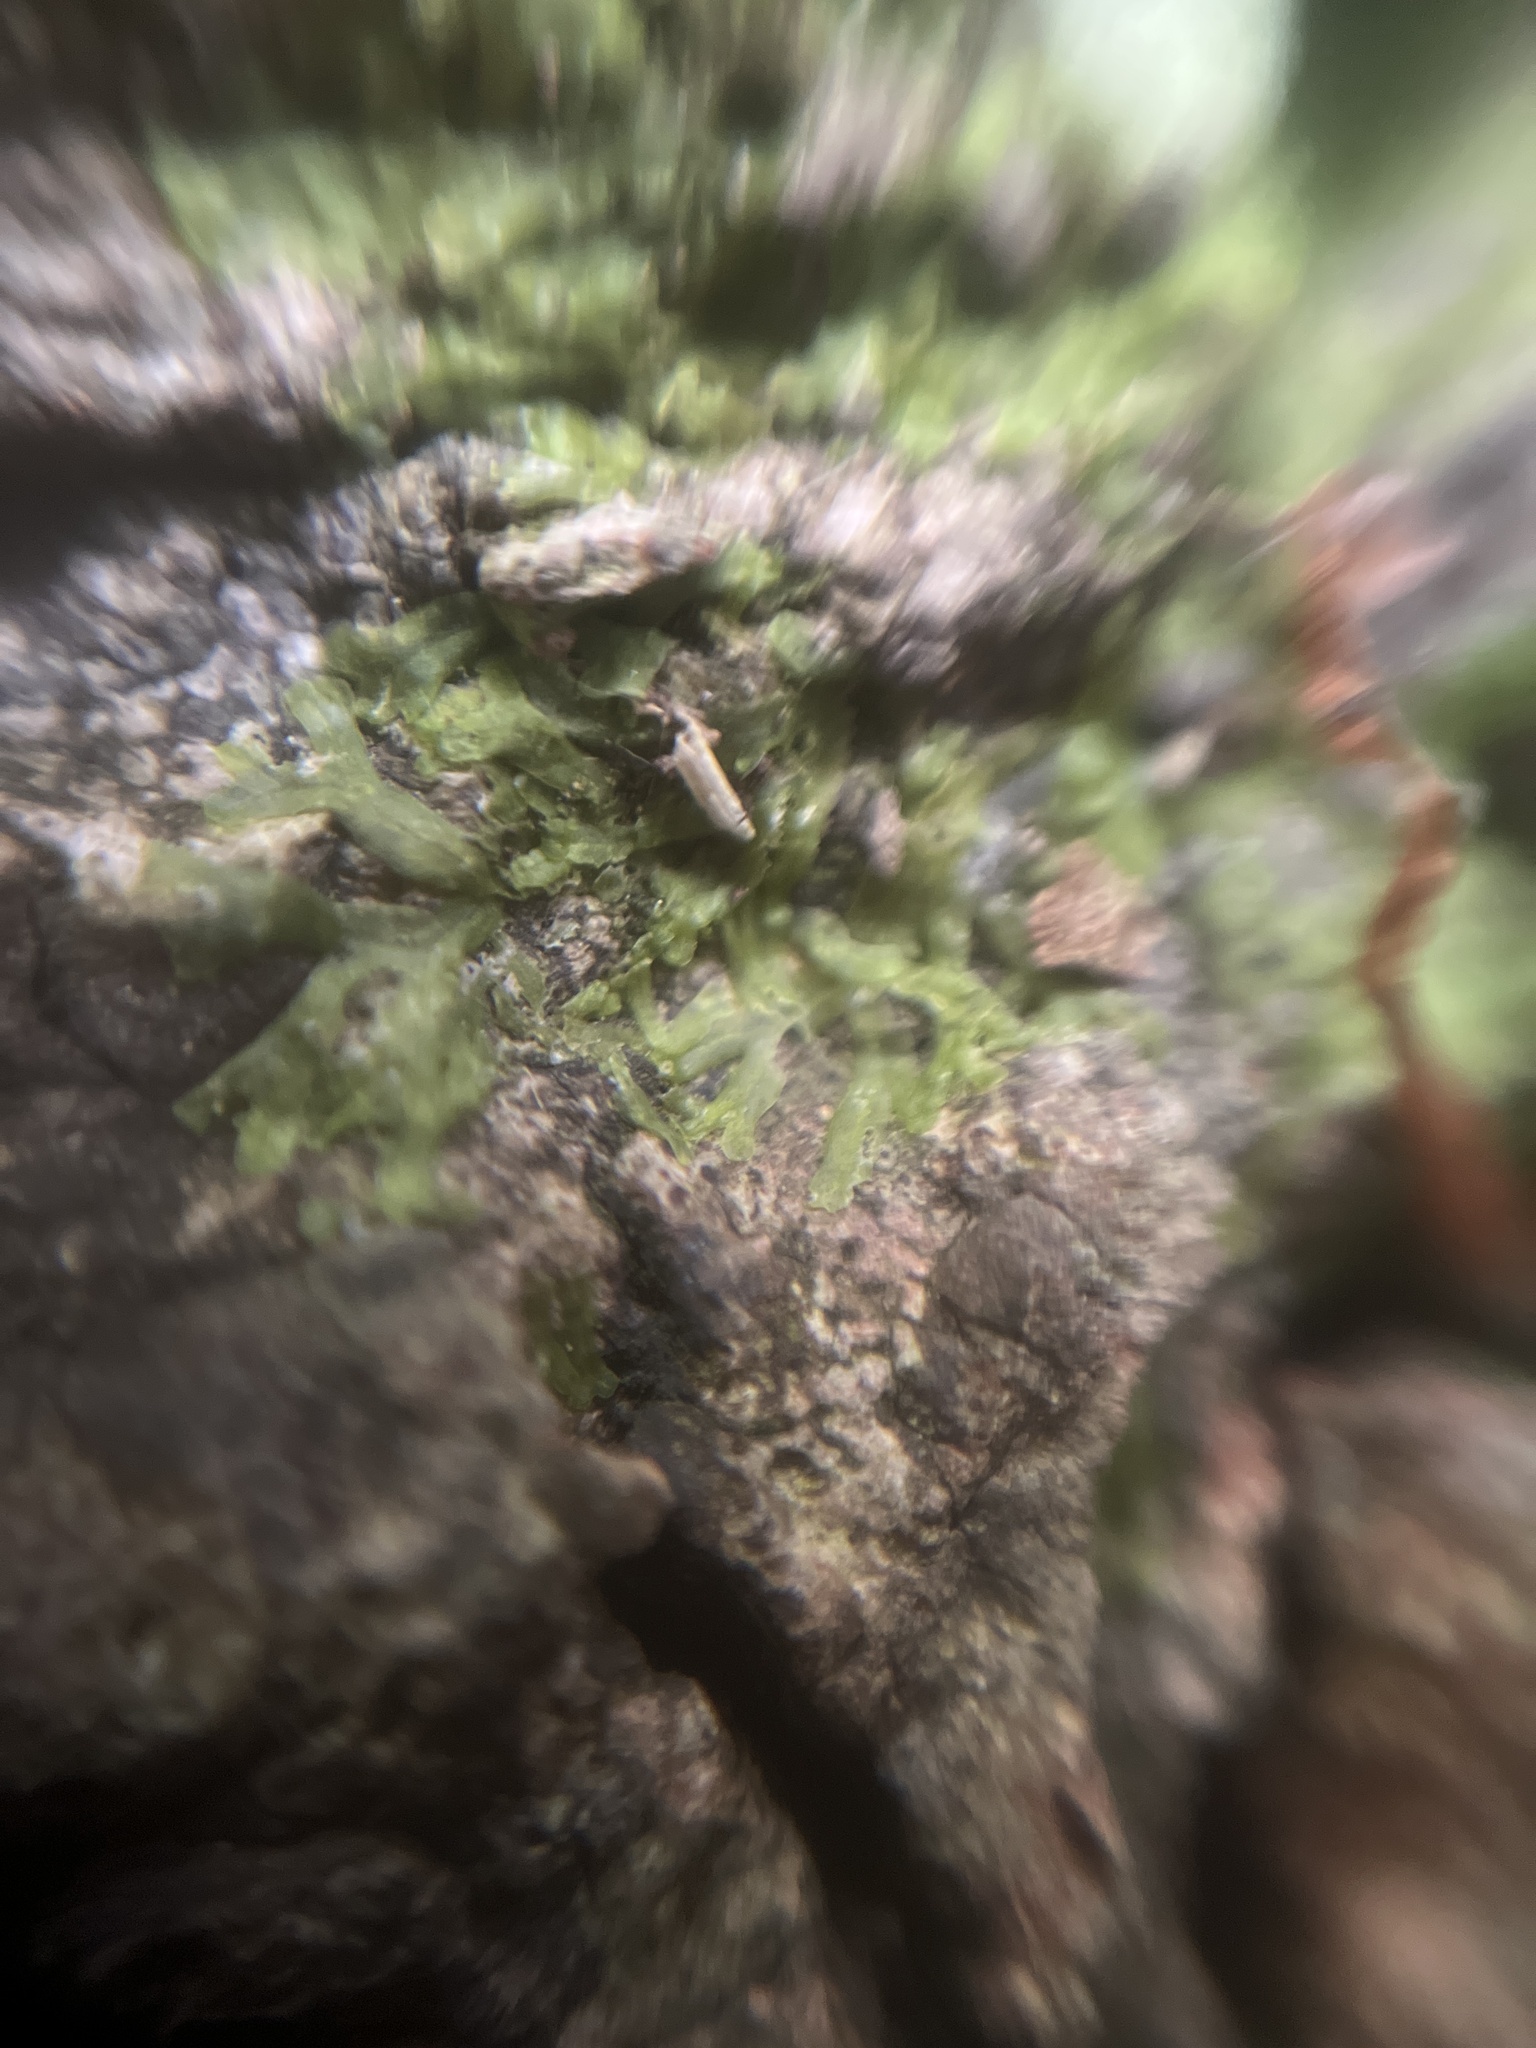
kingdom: Plantae
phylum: Marchantiophyta
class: Jungermanniopsida
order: Metzgeriales
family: Metzgeriaceae
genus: Metzgeria
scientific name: Metzgeria furcata
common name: Forked veilwort
